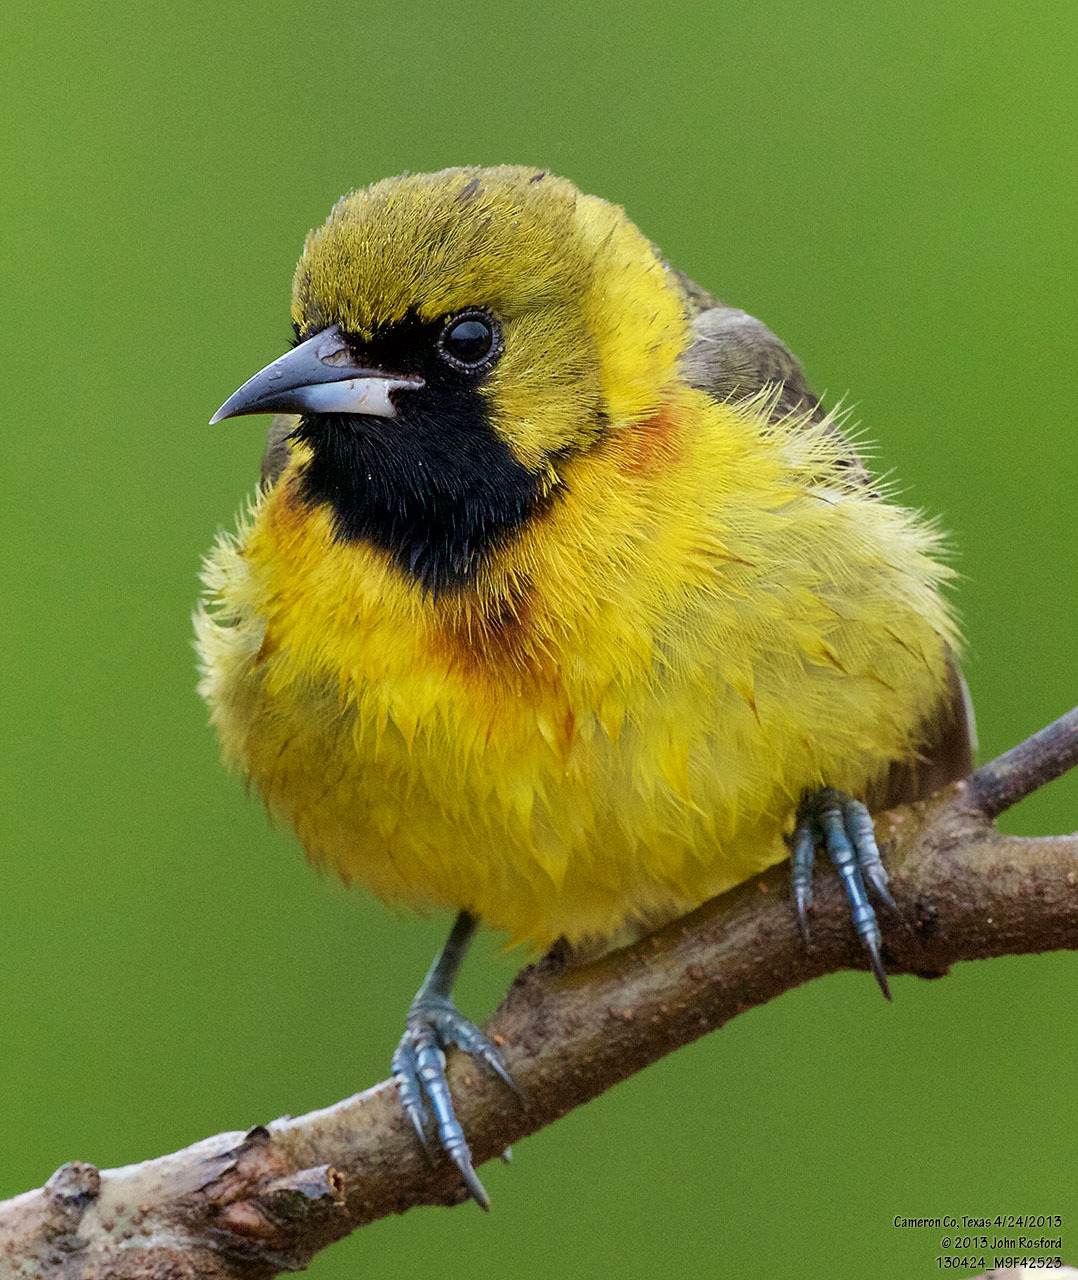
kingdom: Animalia
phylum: Chordata
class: Aves
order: Passeriformes
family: Icteridae
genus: Icterus
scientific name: Icterus spurius
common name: Orchard oriole
